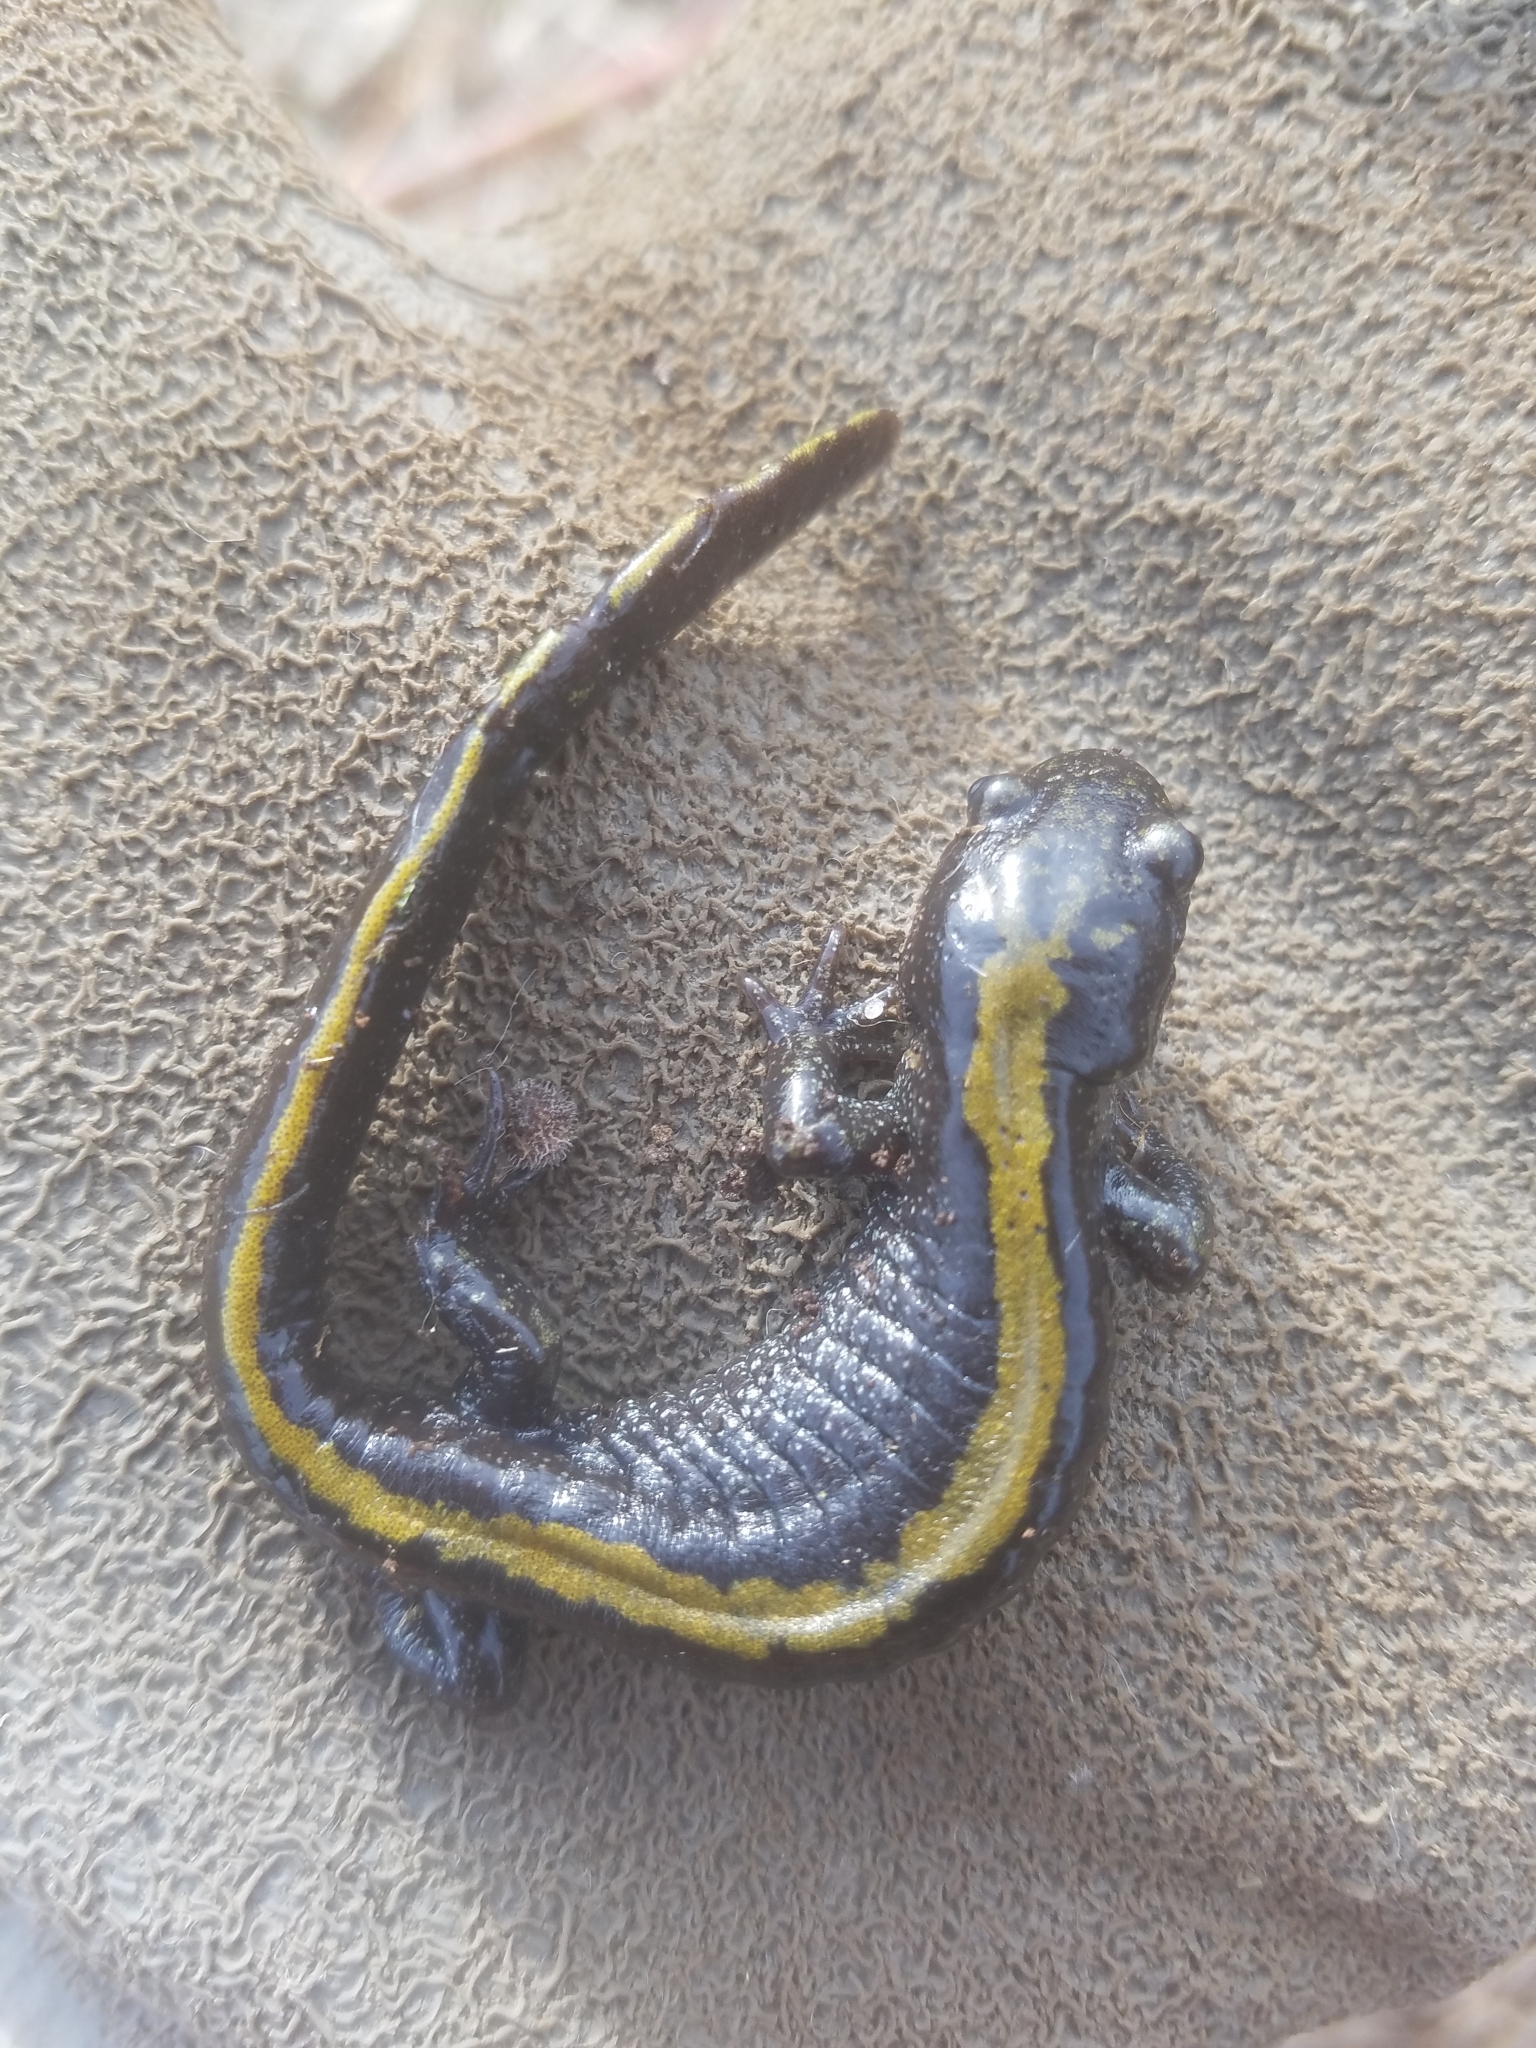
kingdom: Animalia
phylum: Chordata
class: Amphibia
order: Caudata
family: Ambystomatidae
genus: Ambystoma
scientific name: Ambystoma macrodactylum
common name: Long-toed salamander
